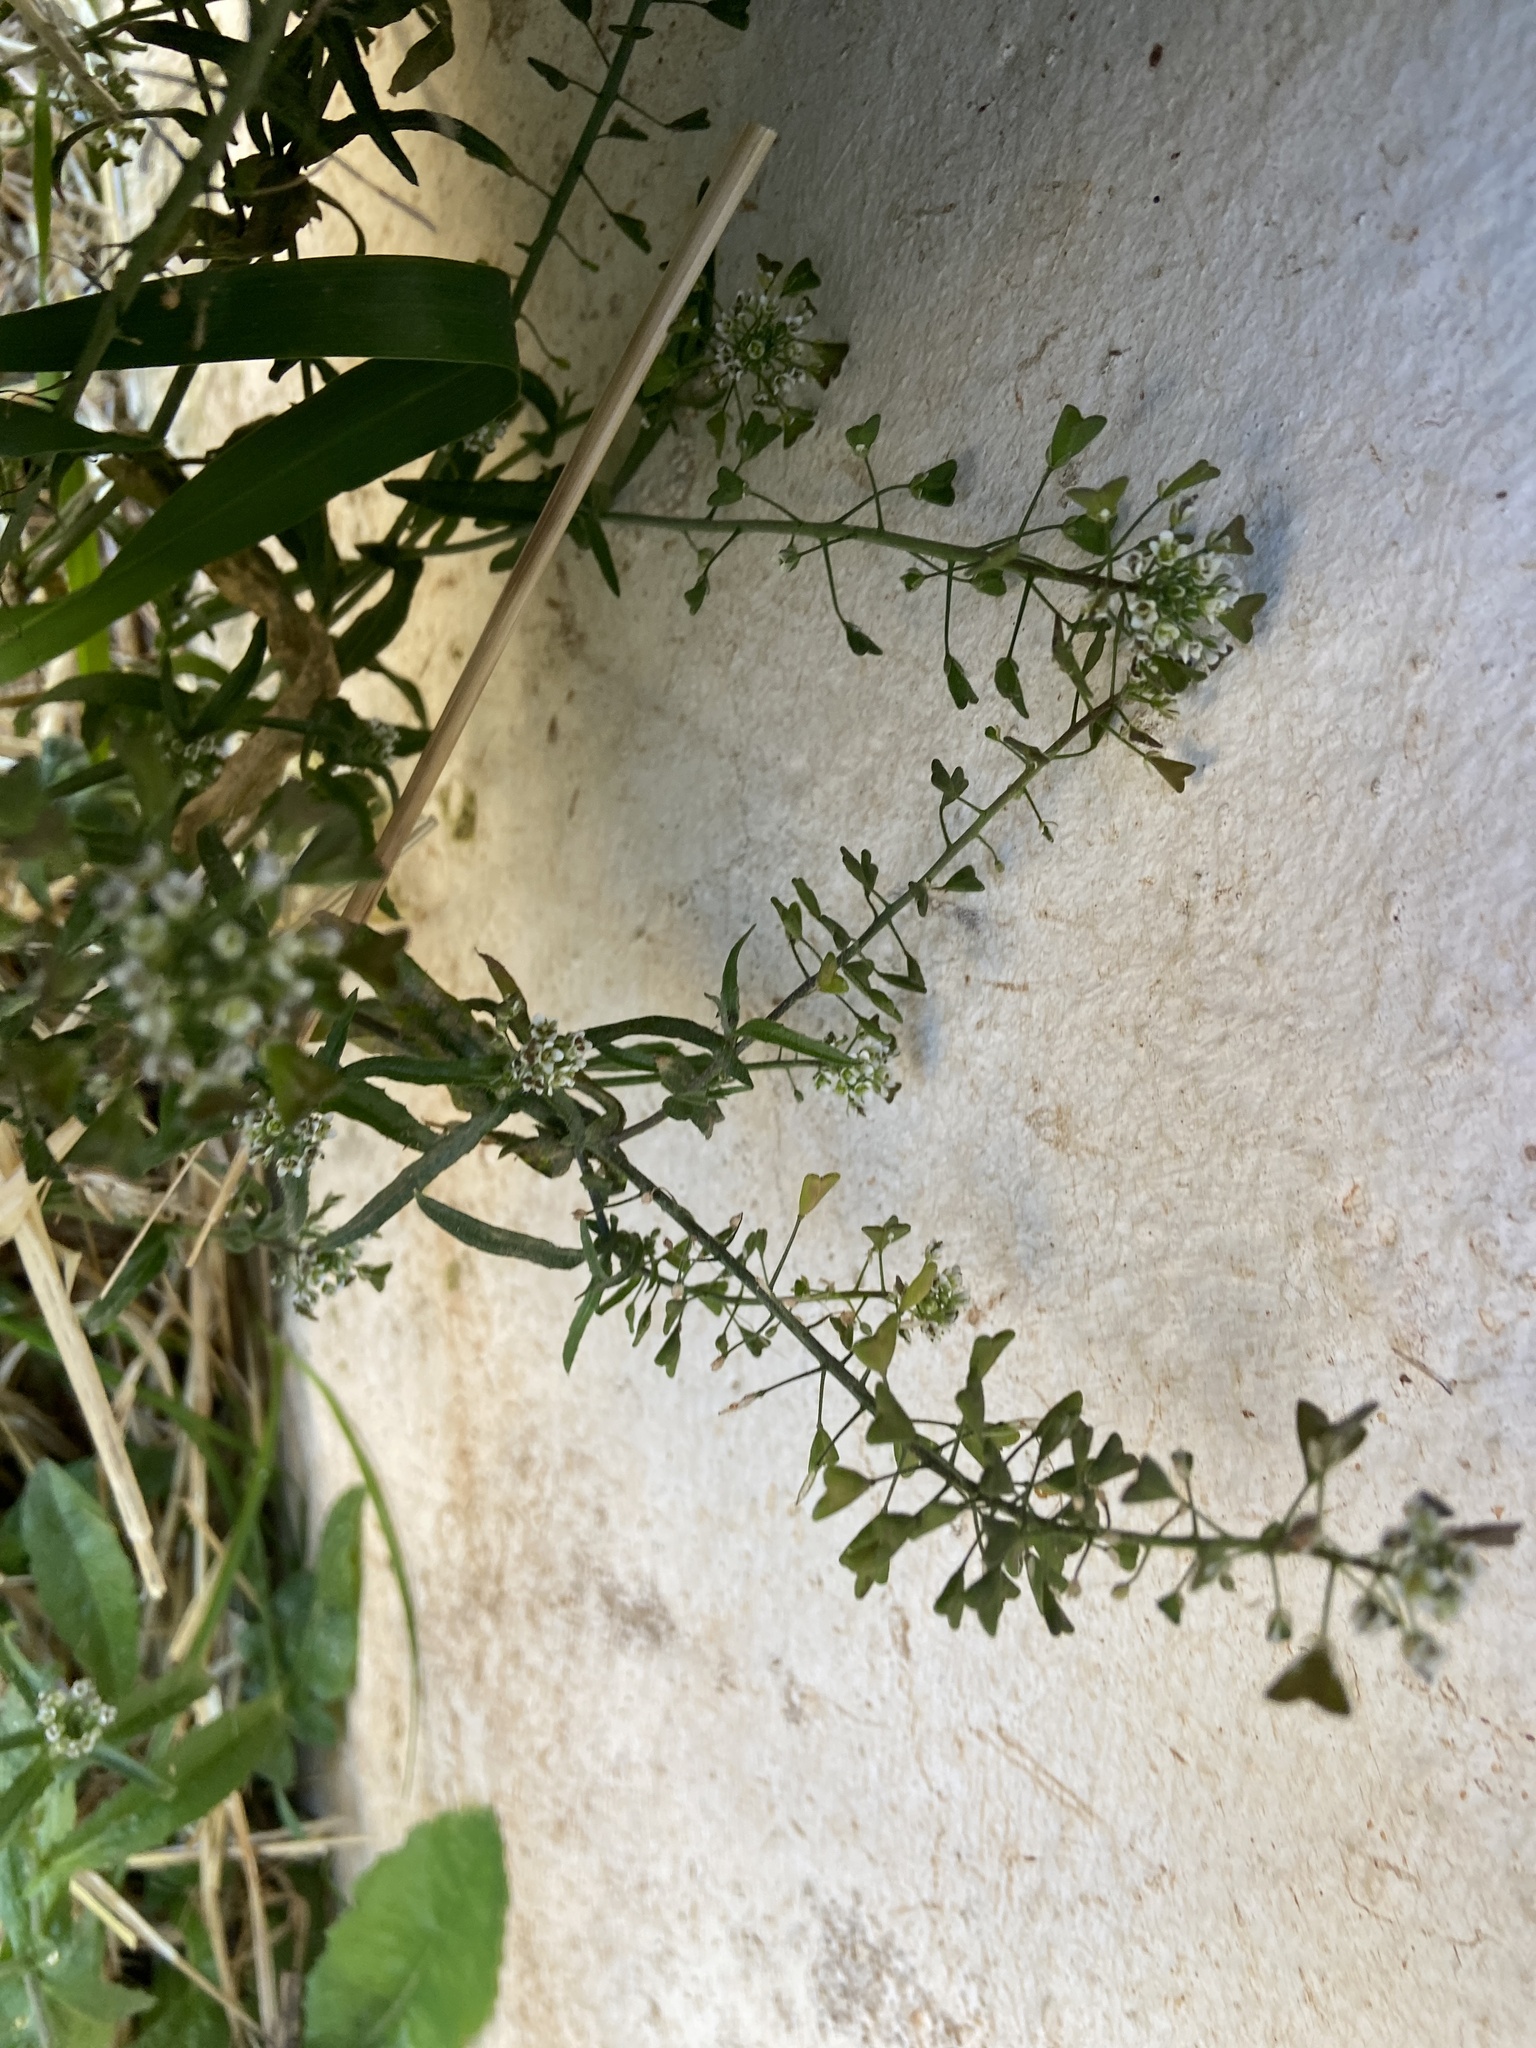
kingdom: Plantae
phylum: Tracheophyta
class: Magnoliopsida
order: Brassicales
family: Brassicaceae
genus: Capsella
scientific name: Capsella bursa-pastoris
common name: Shepherd's purse
